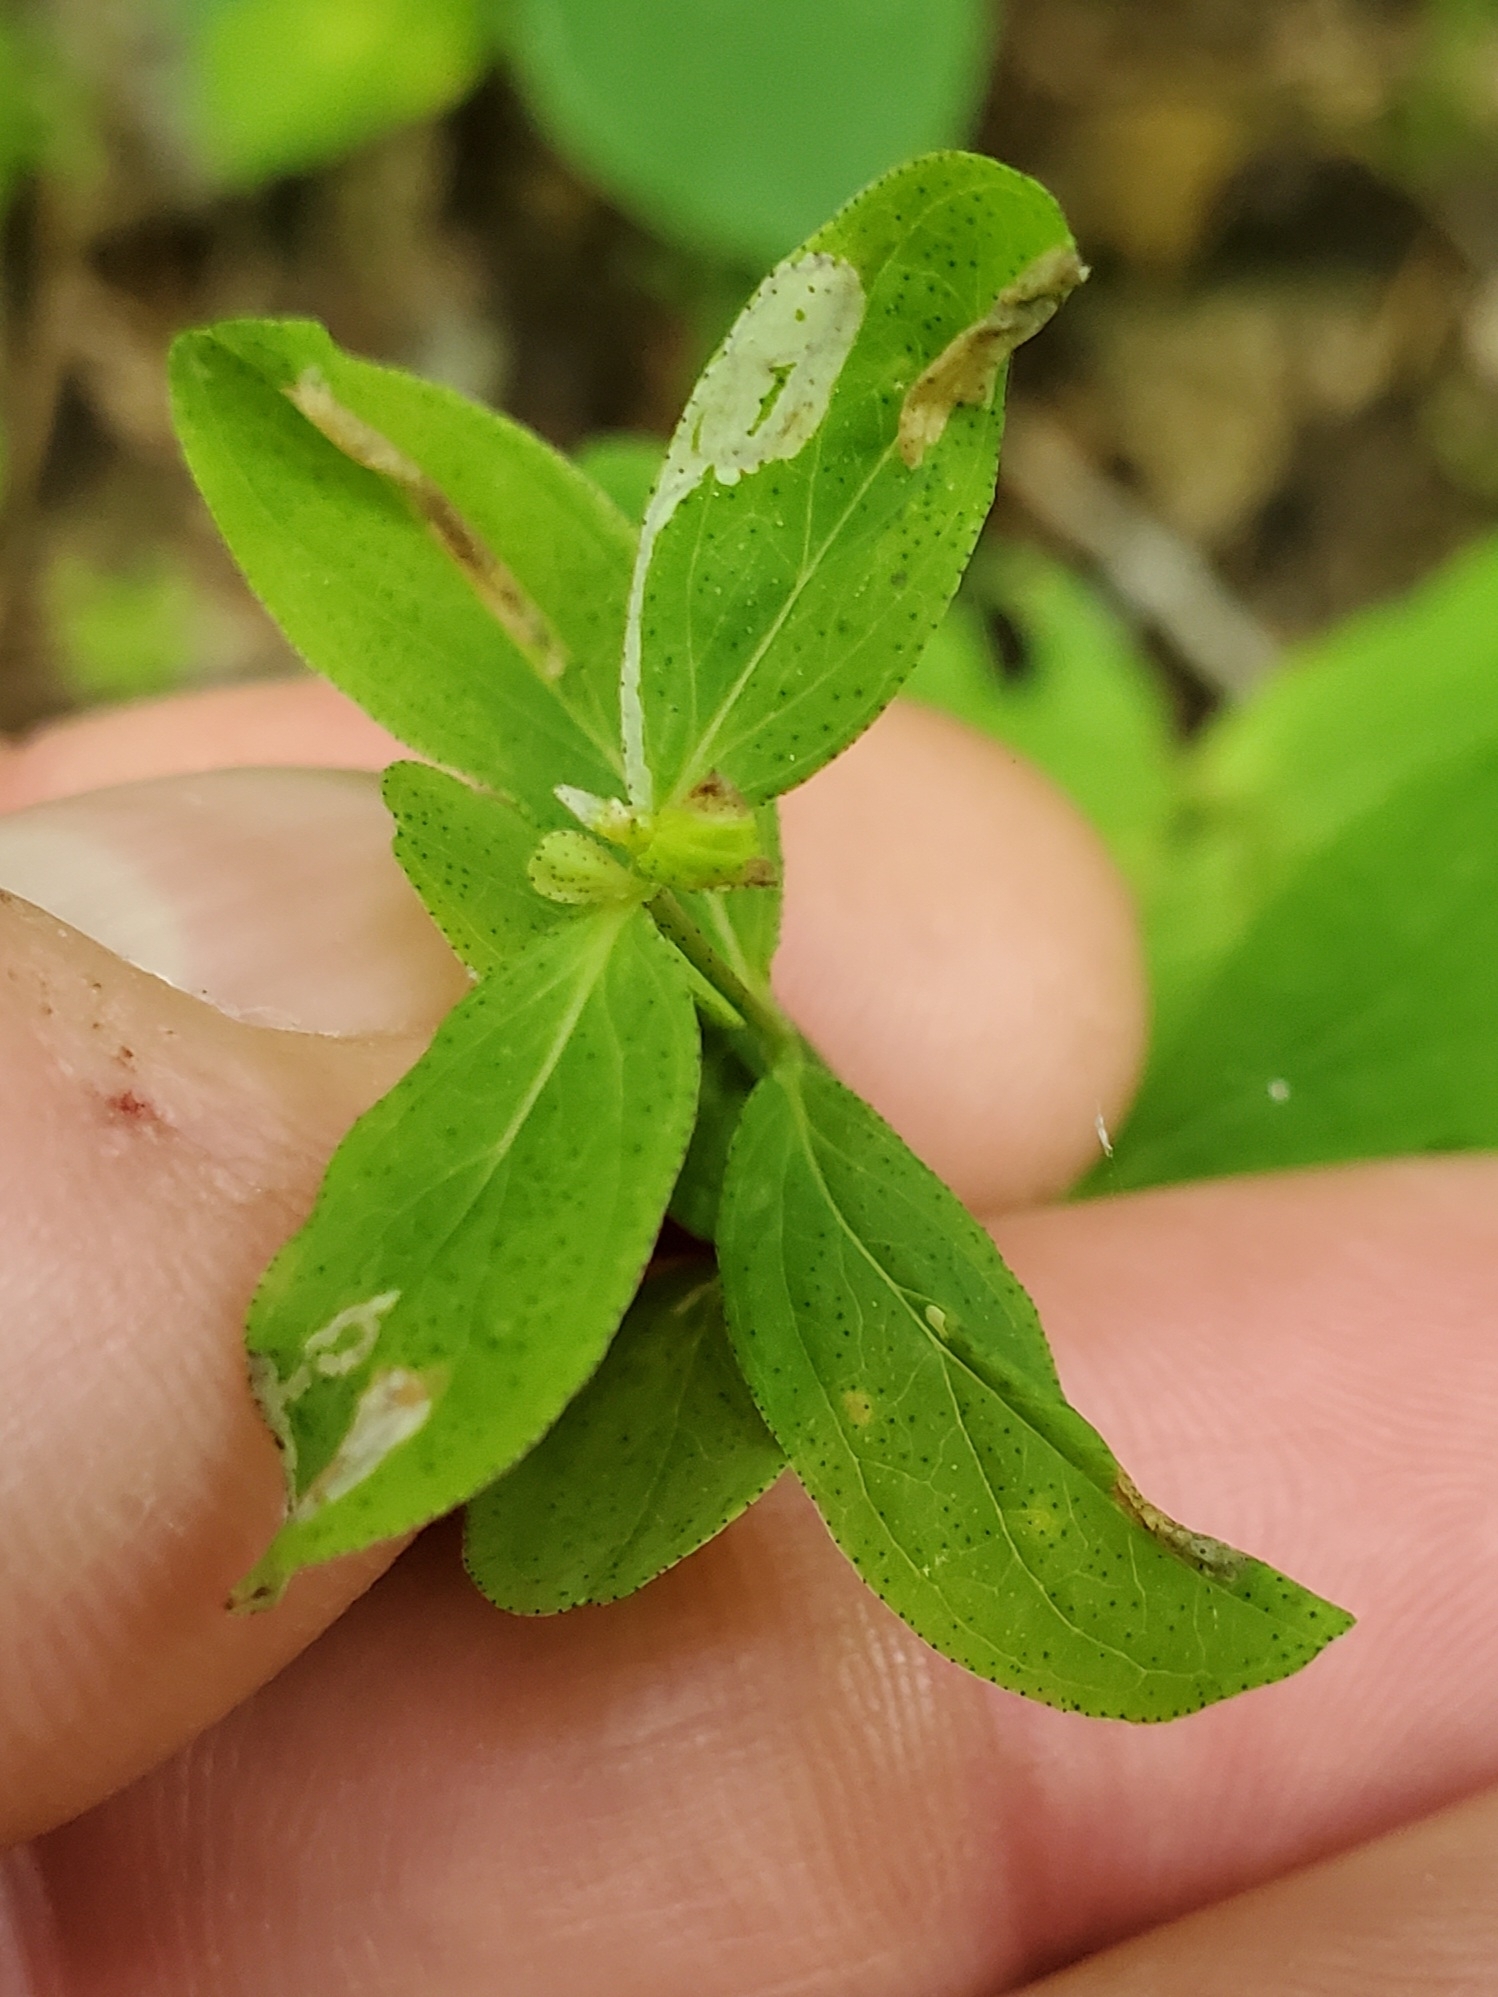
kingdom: Animalia
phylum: Arthropoda
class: Insecta
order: Lepidoptera
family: Gracillariidae
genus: Caloptilia
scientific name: Caloptilia hypericella
